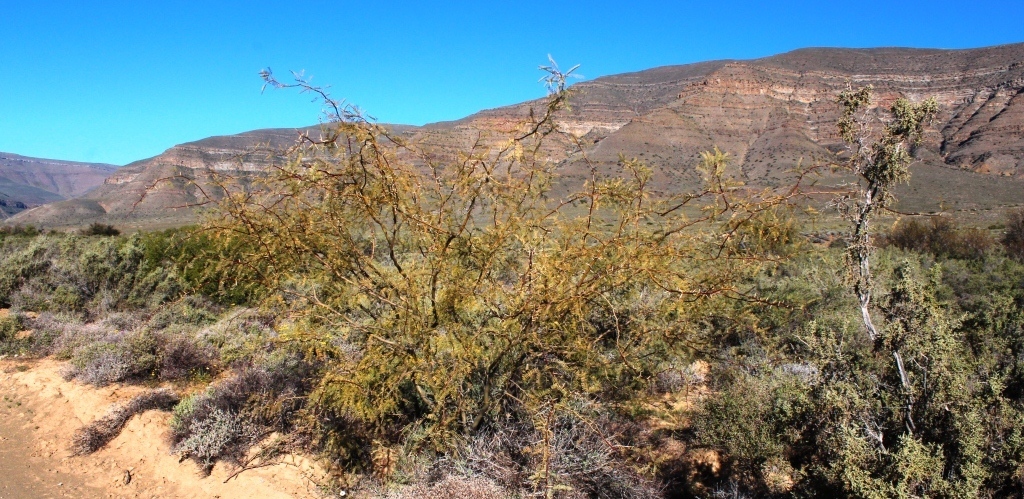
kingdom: Plantae
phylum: Tracheophyta
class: Magnoliopsida
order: Fabales
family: Fabaceae
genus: Prosopis
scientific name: Prosopis velutina
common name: Velvet mesquite
